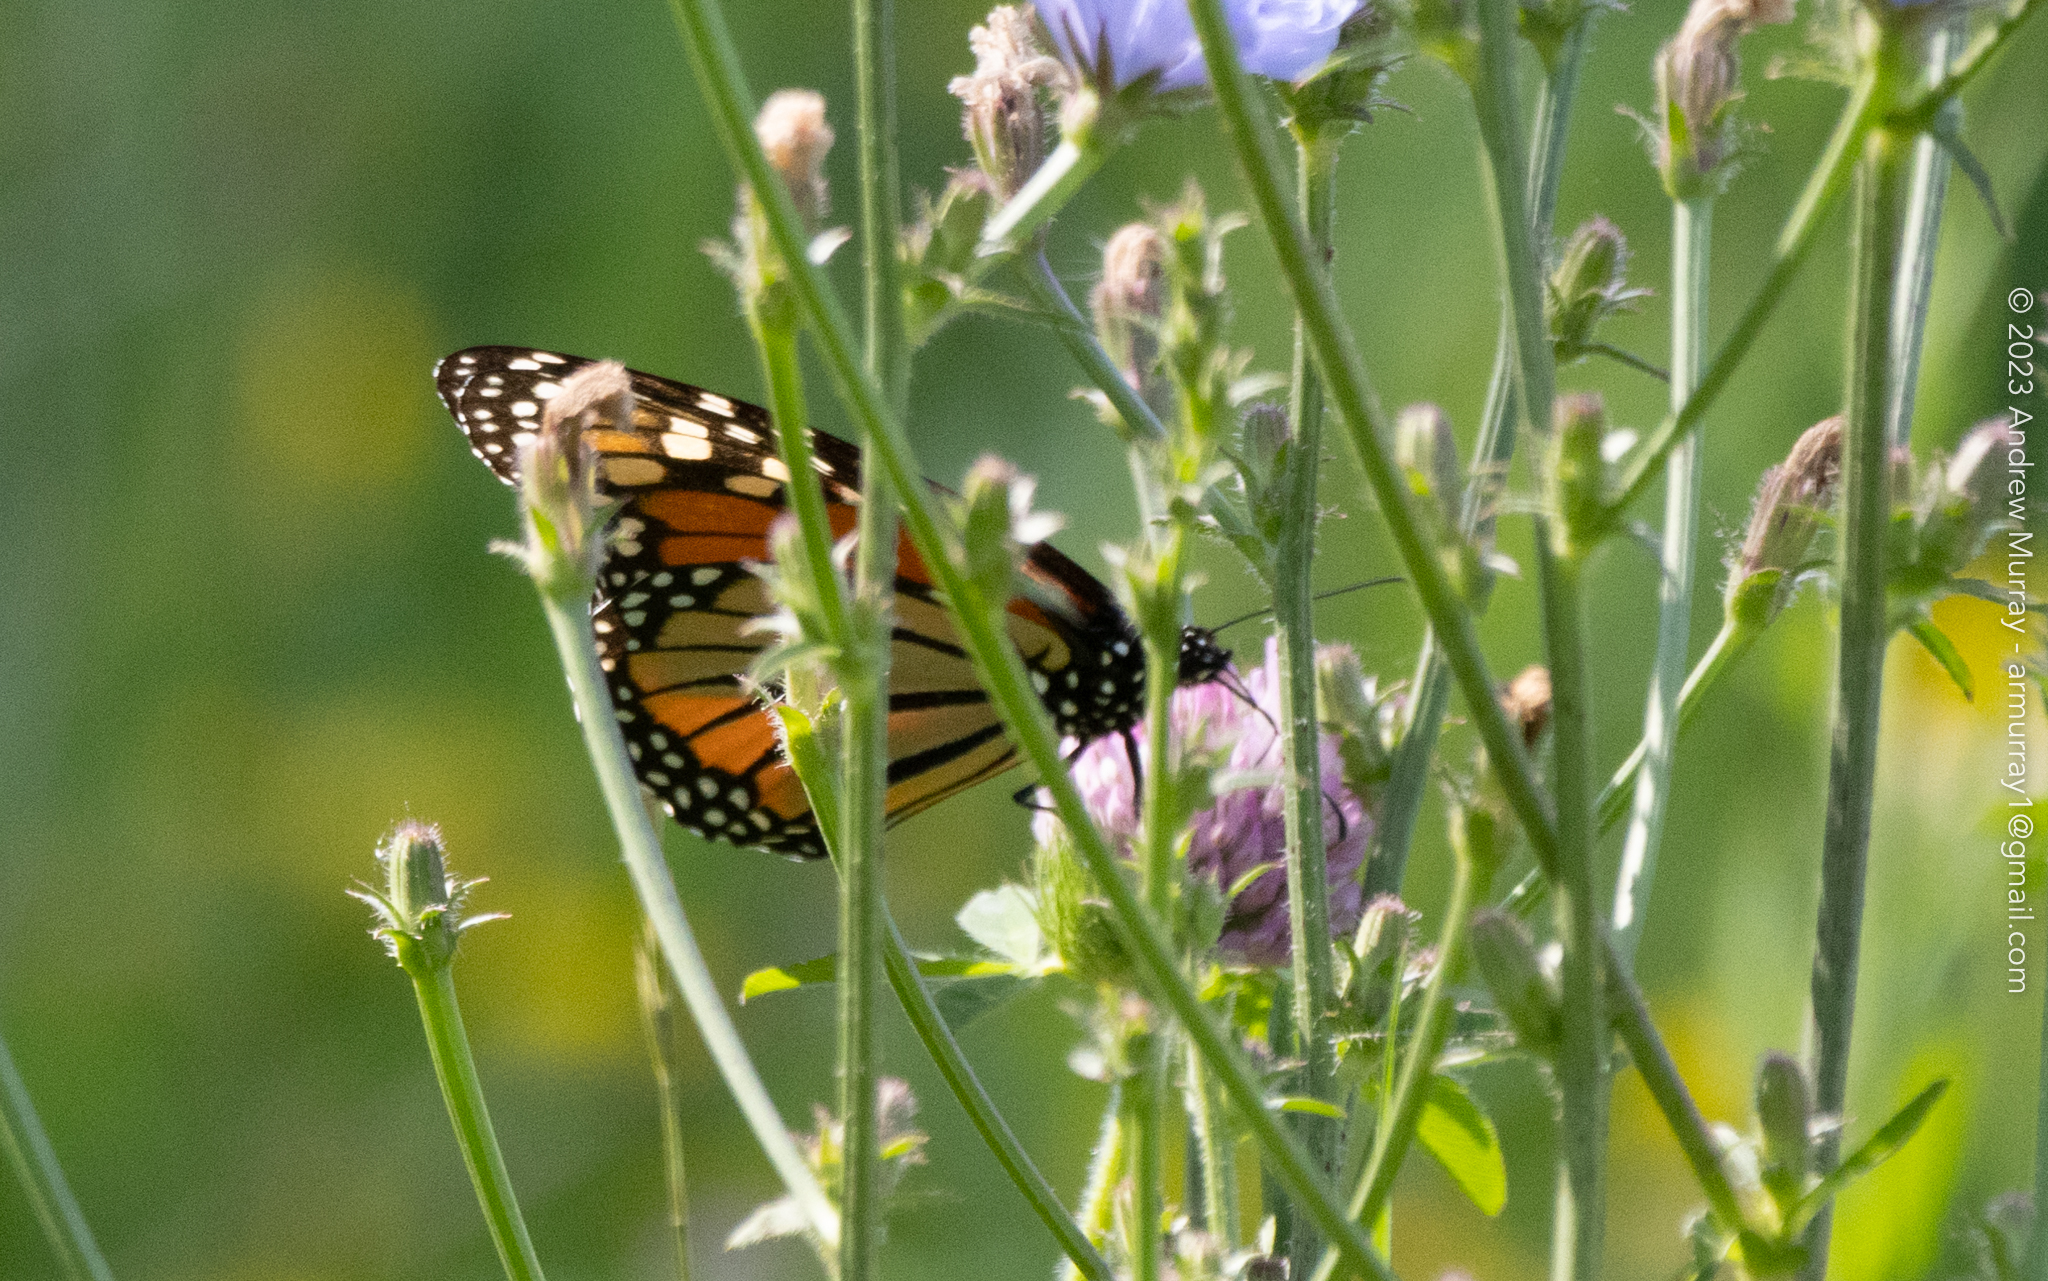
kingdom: Animalia
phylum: Arthropoda
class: Insecta
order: Lepidoptera
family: Nymphalidae
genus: Danaus
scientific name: Danaus plexippus
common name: Monarch
